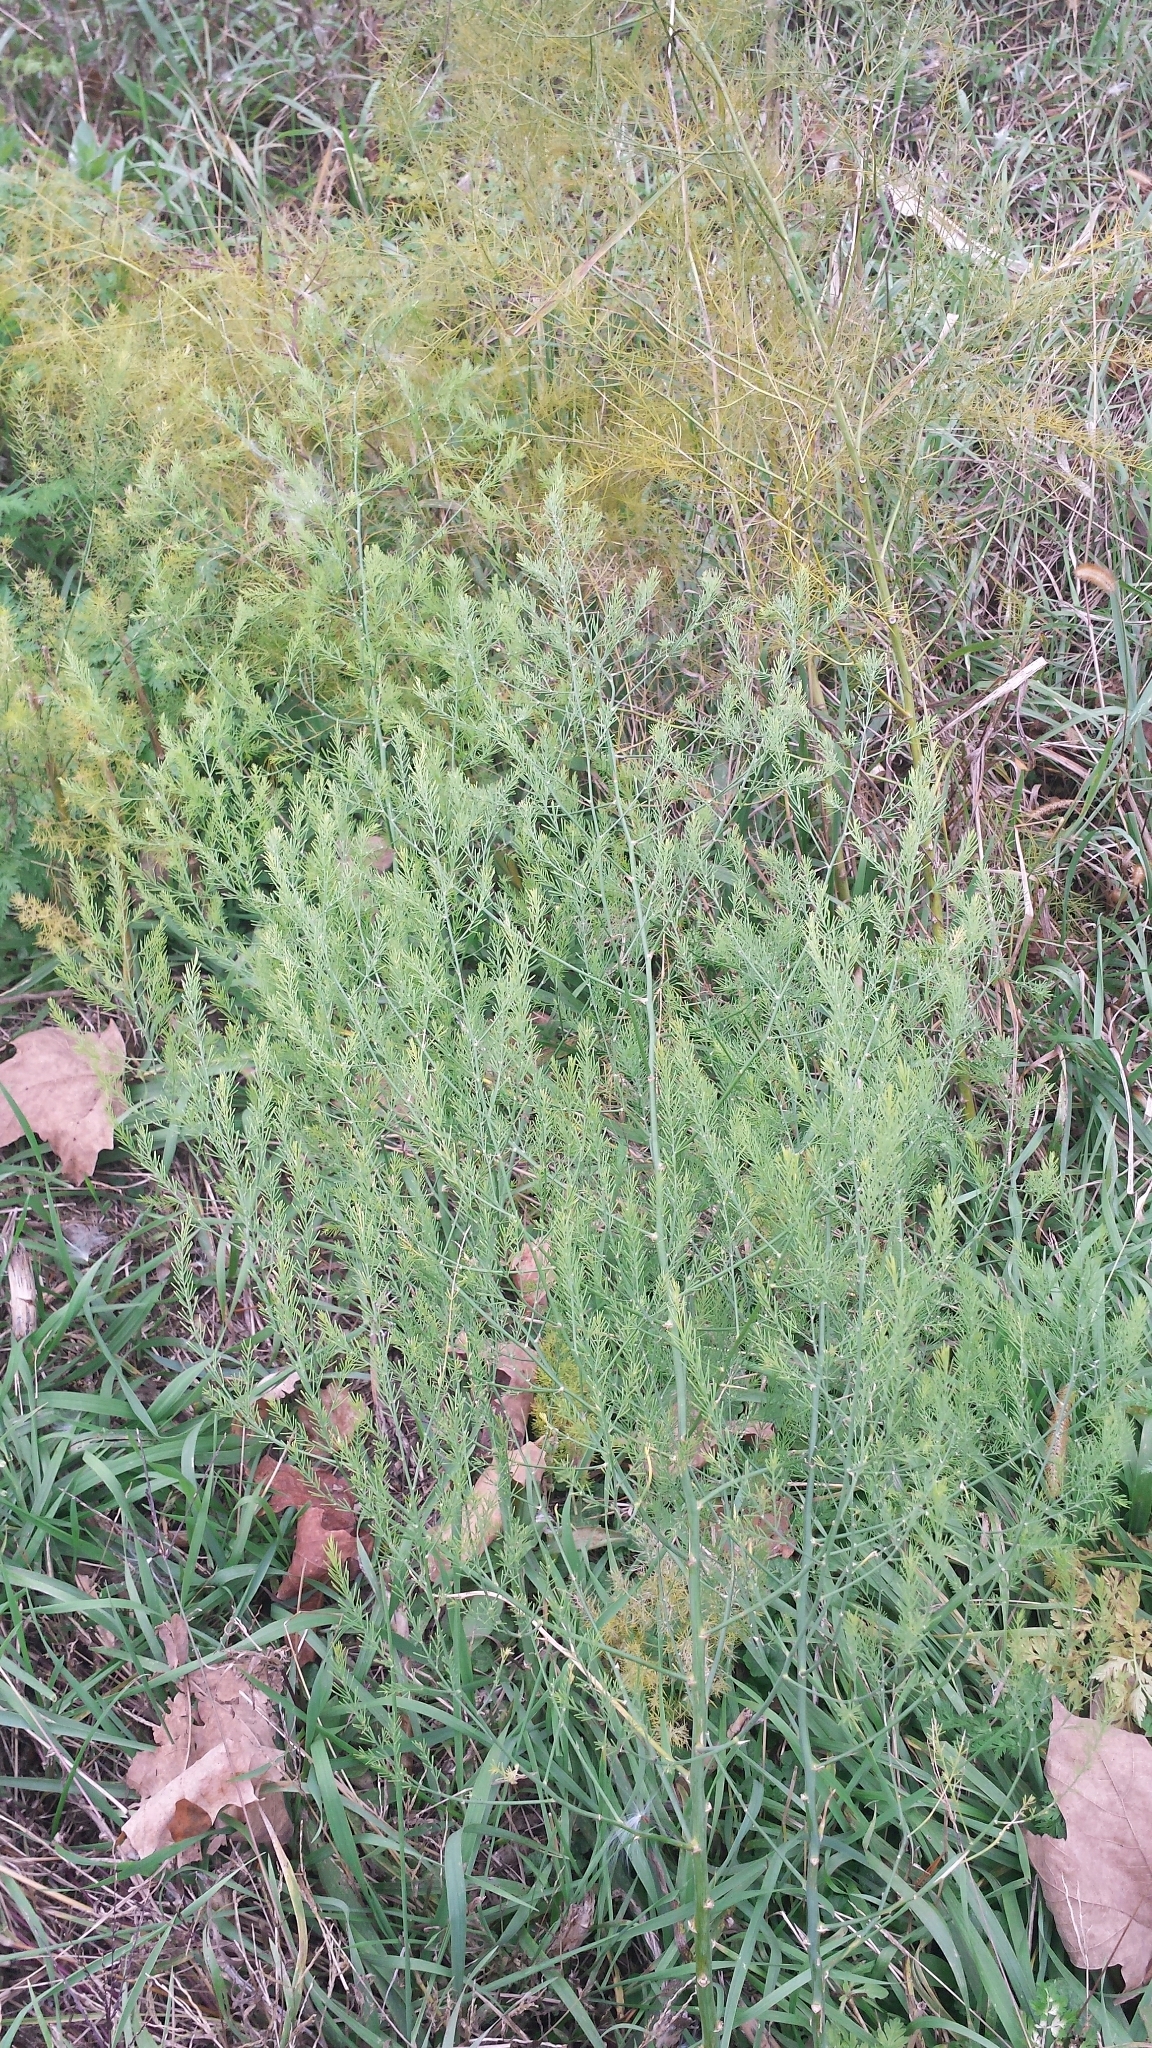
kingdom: Plantae
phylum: Tracheophyta
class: Liliopsida
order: Asparagales
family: Asparagaceae
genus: Asparagus
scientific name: Asparagus officinalis
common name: Garden asparagus
